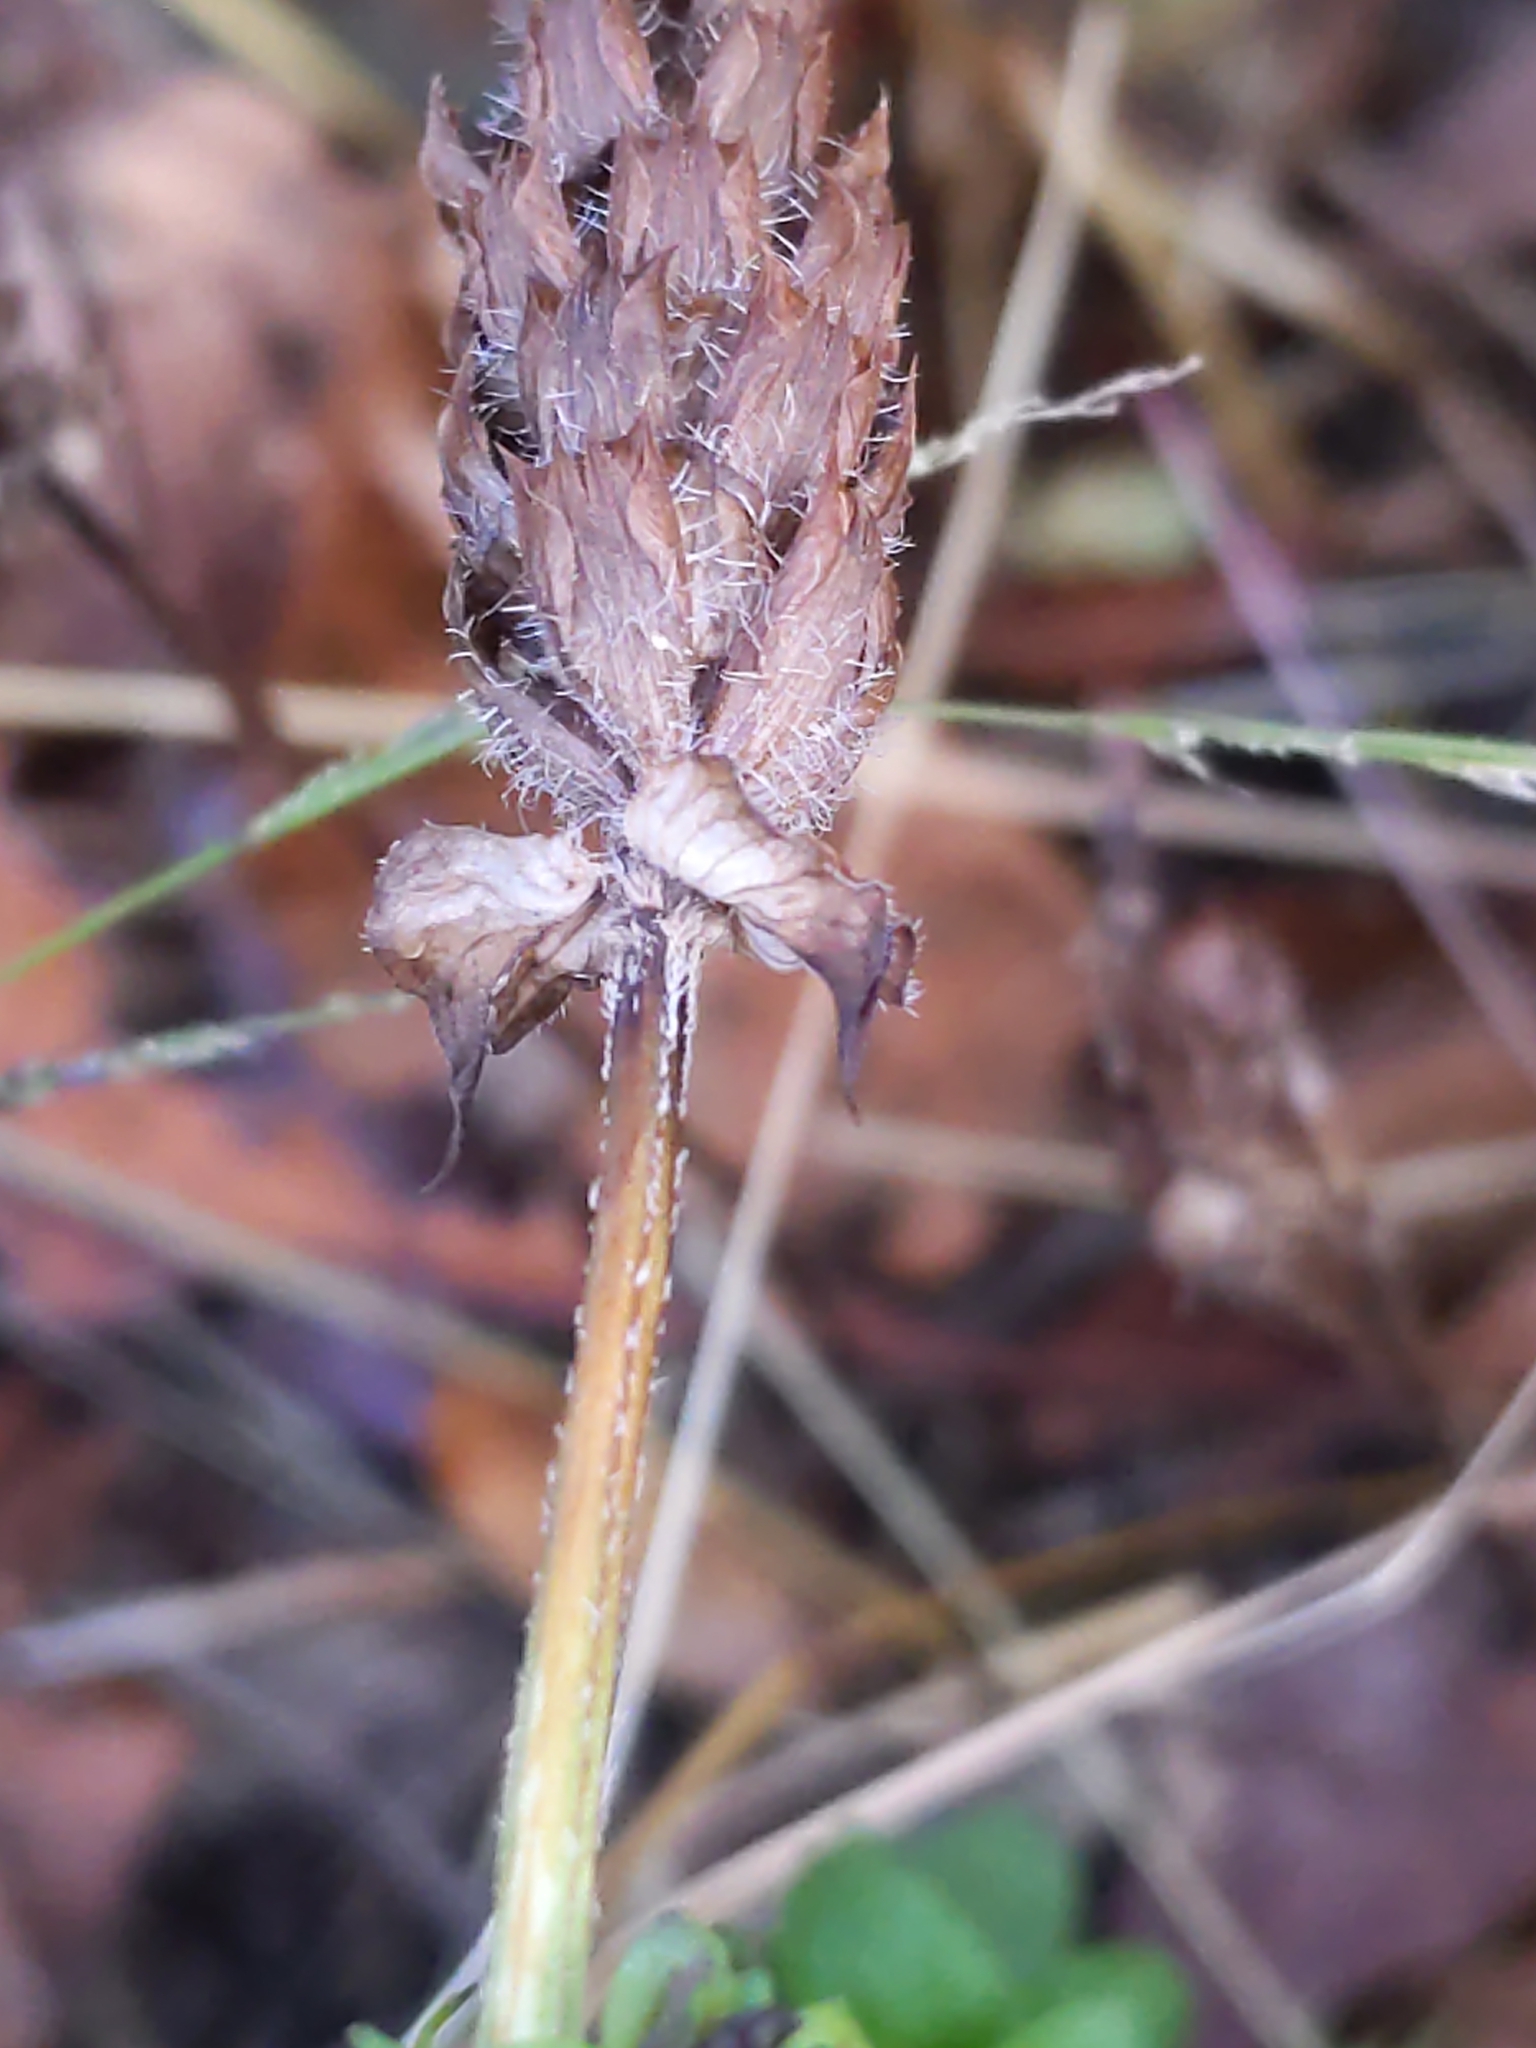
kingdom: Plantae
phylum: Tracheophyta
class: Magnoliopsida
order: Lamiales
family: Lamiaceae
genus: Prunella
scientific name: Prunella vulgaris
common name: Heal-all
